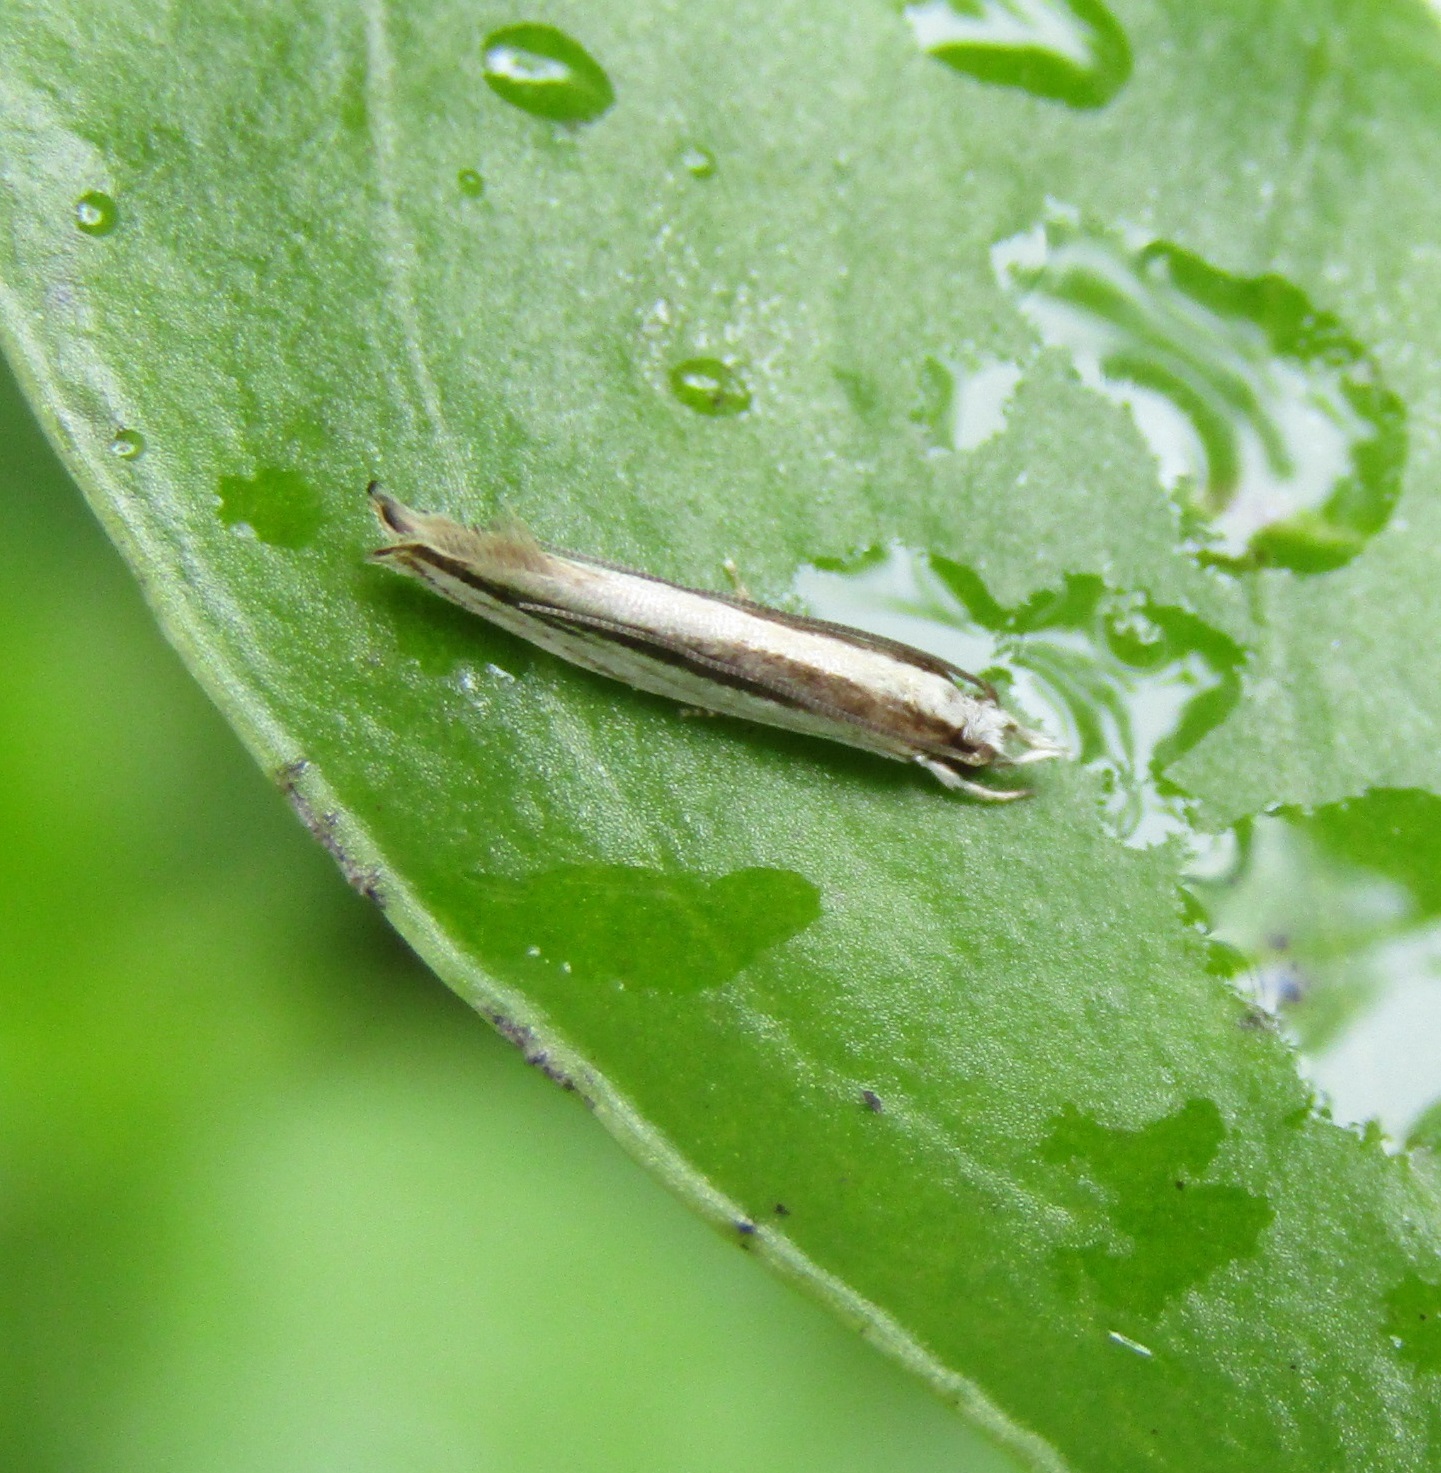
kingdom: Animalia
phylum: Arthropoda
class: Insecta
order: Lepidoptera
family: Tineidae
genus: Erechthias
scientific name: Erechthias stilbella
